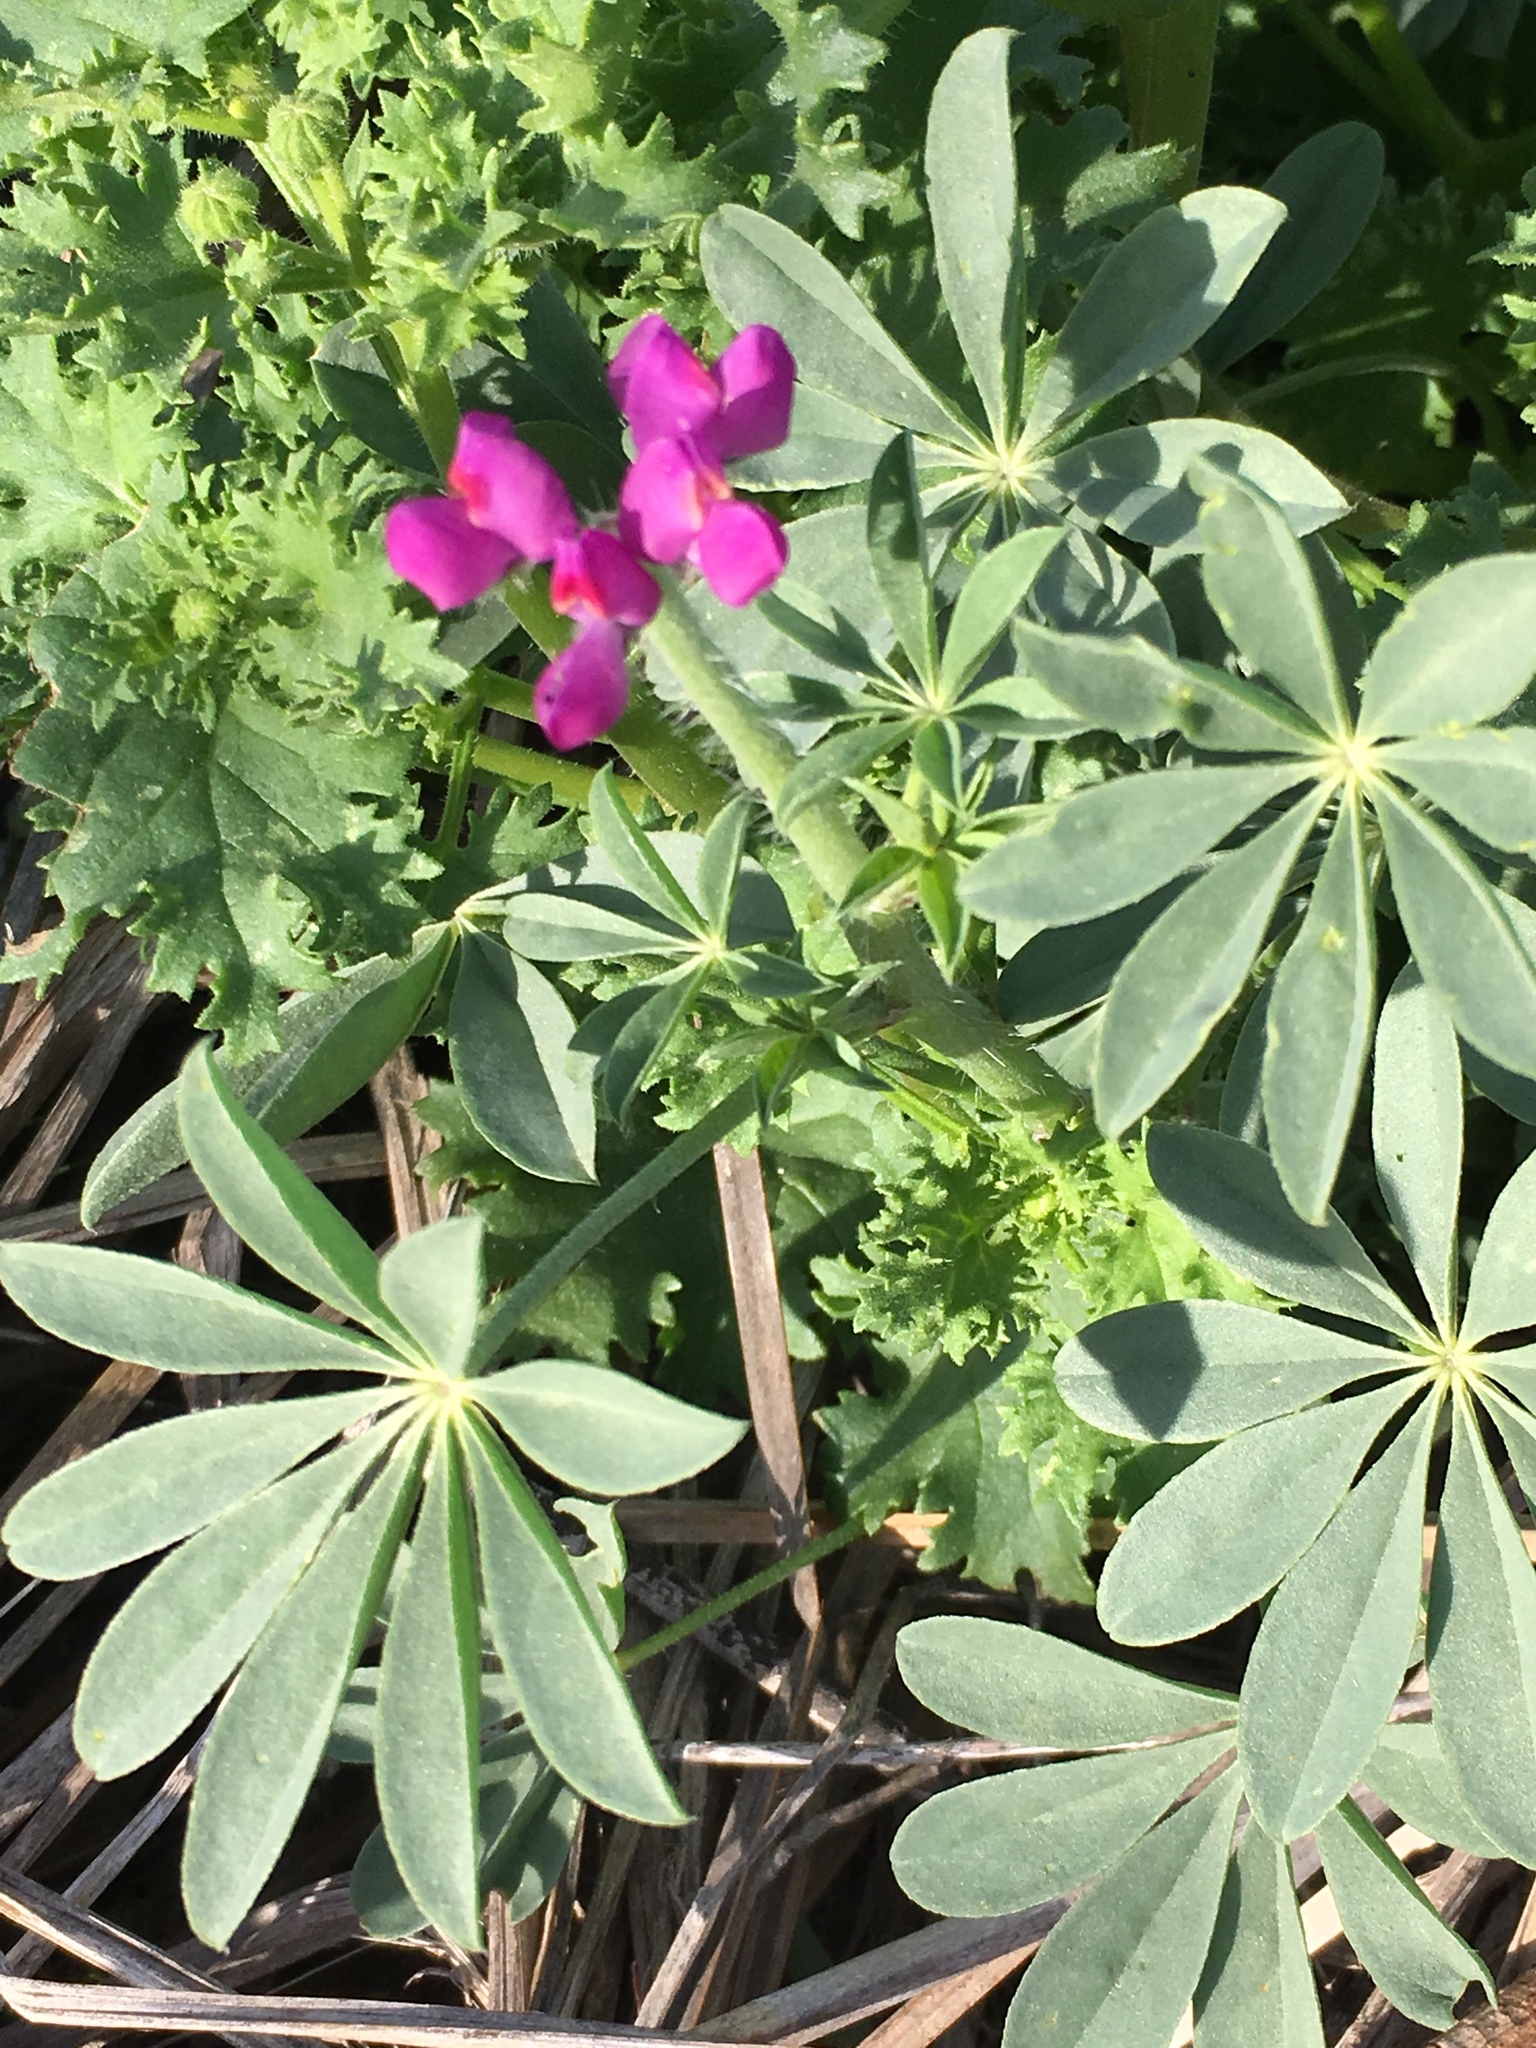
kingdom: Plantae
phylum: Tracheophyta
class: Magnoliopsida
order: Fabales
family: Fabaceae
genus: Lupinus
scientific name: Lupinus arizonicus
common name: Arizona lupine
